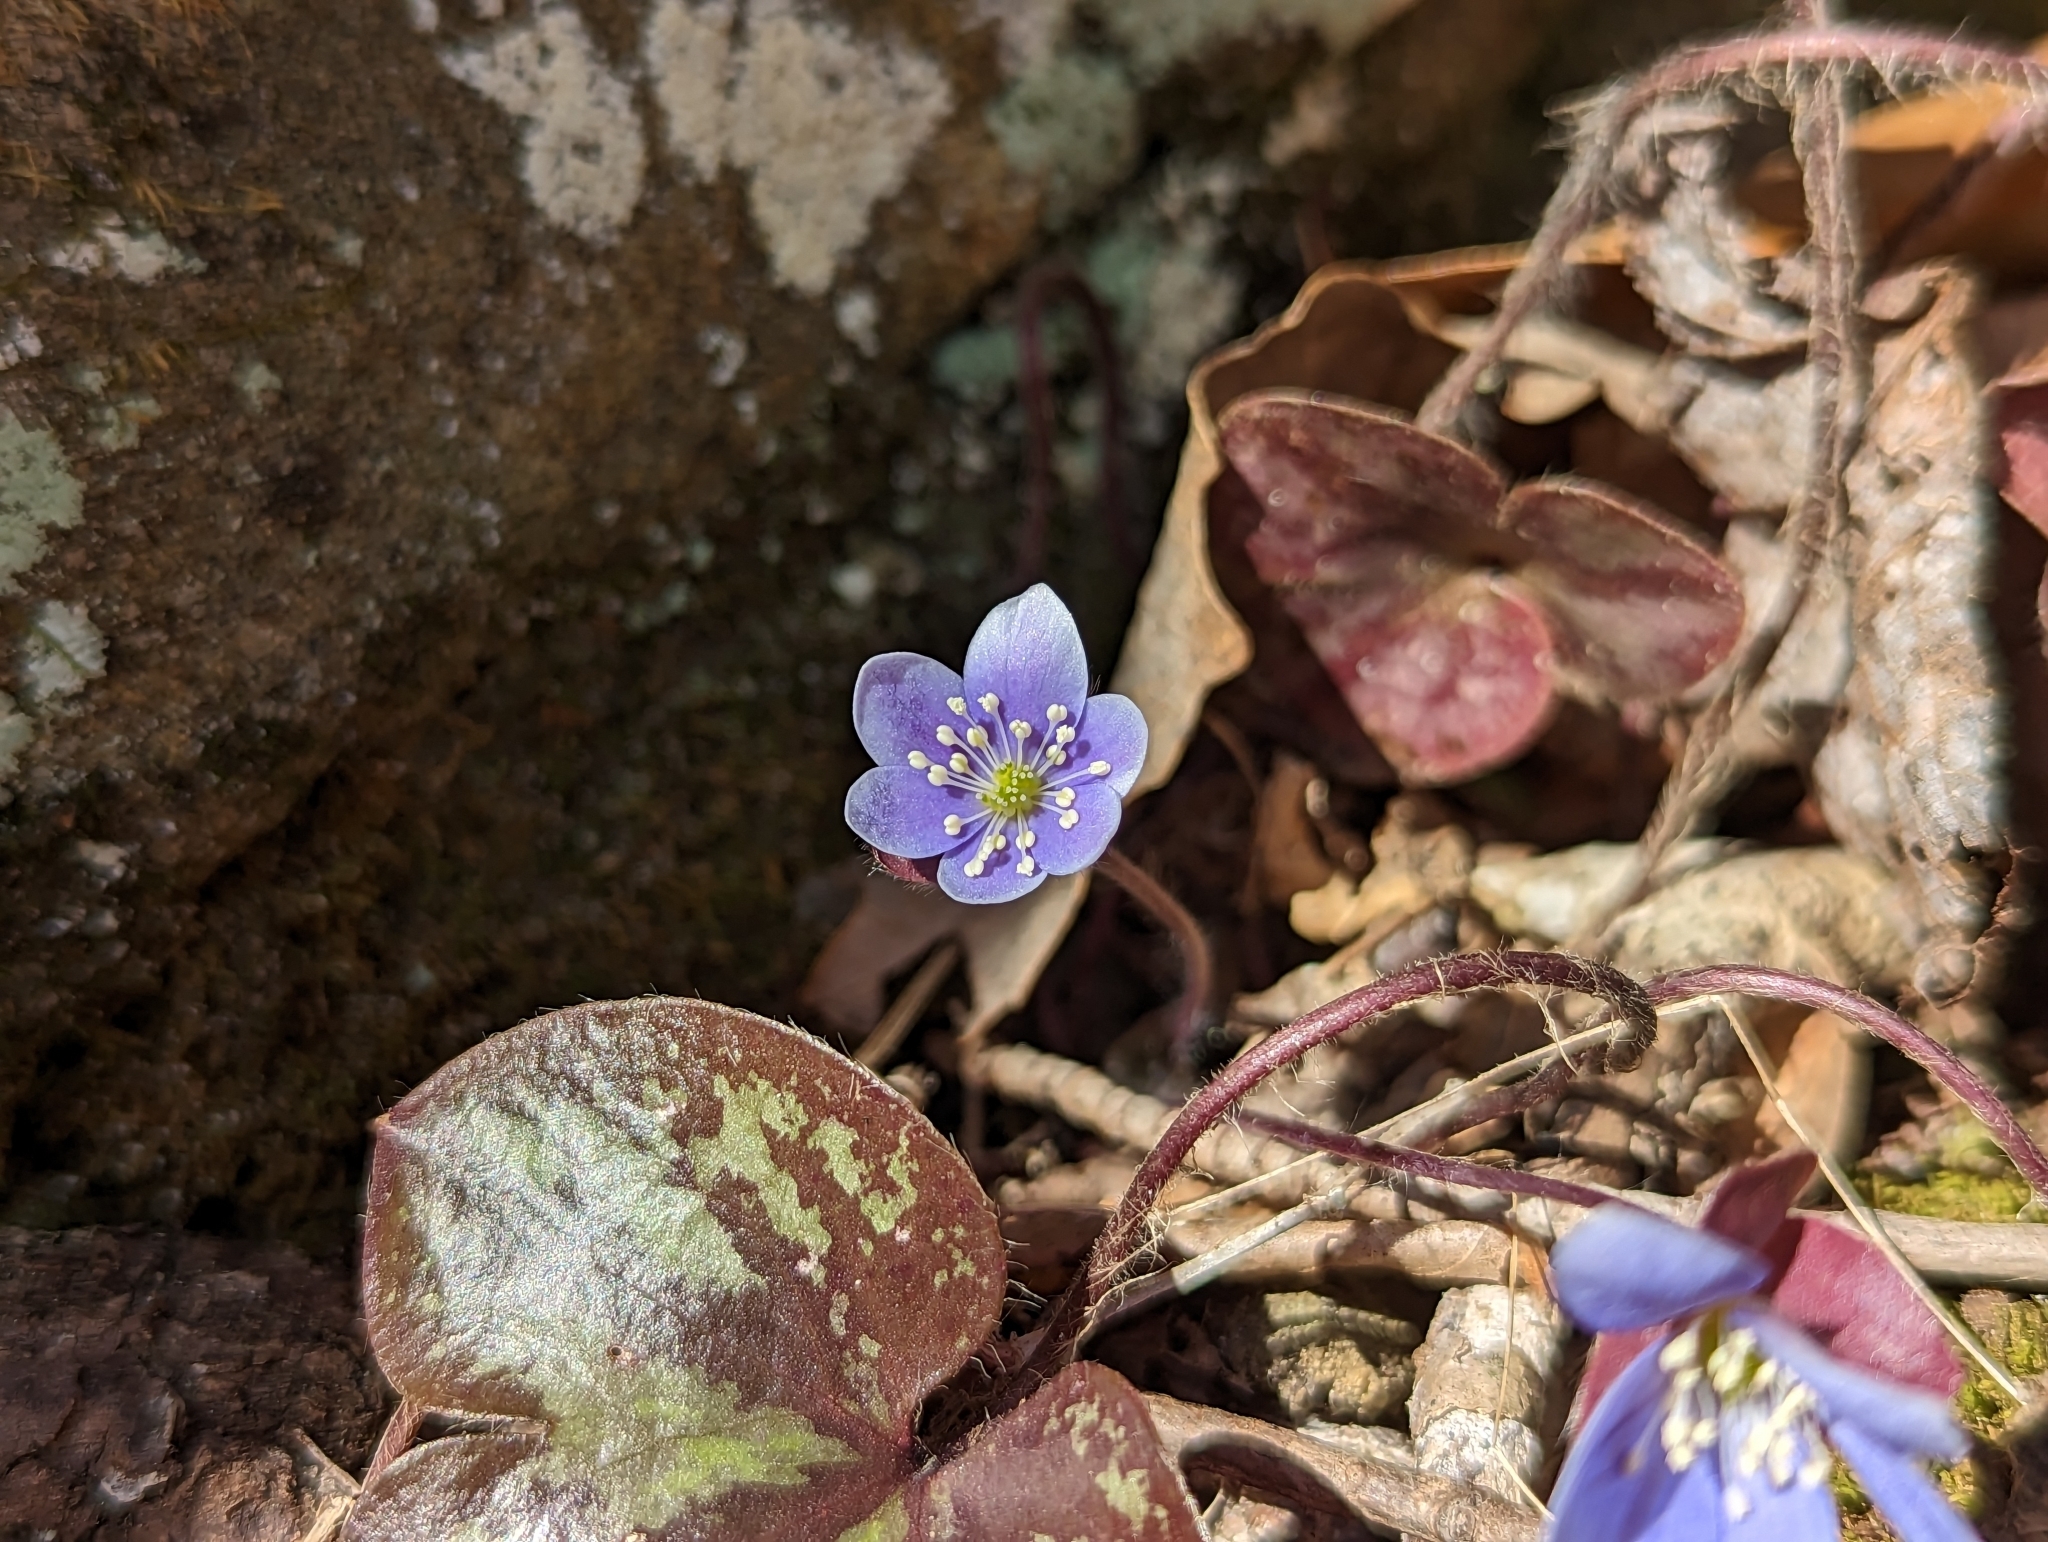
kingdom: Plantae
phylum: Tracheophyta
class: Magnoliopsida
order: Ranunculales
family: Ranunculaceae
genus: Hepatica
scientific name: Hepatica americana
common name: American hepatica
